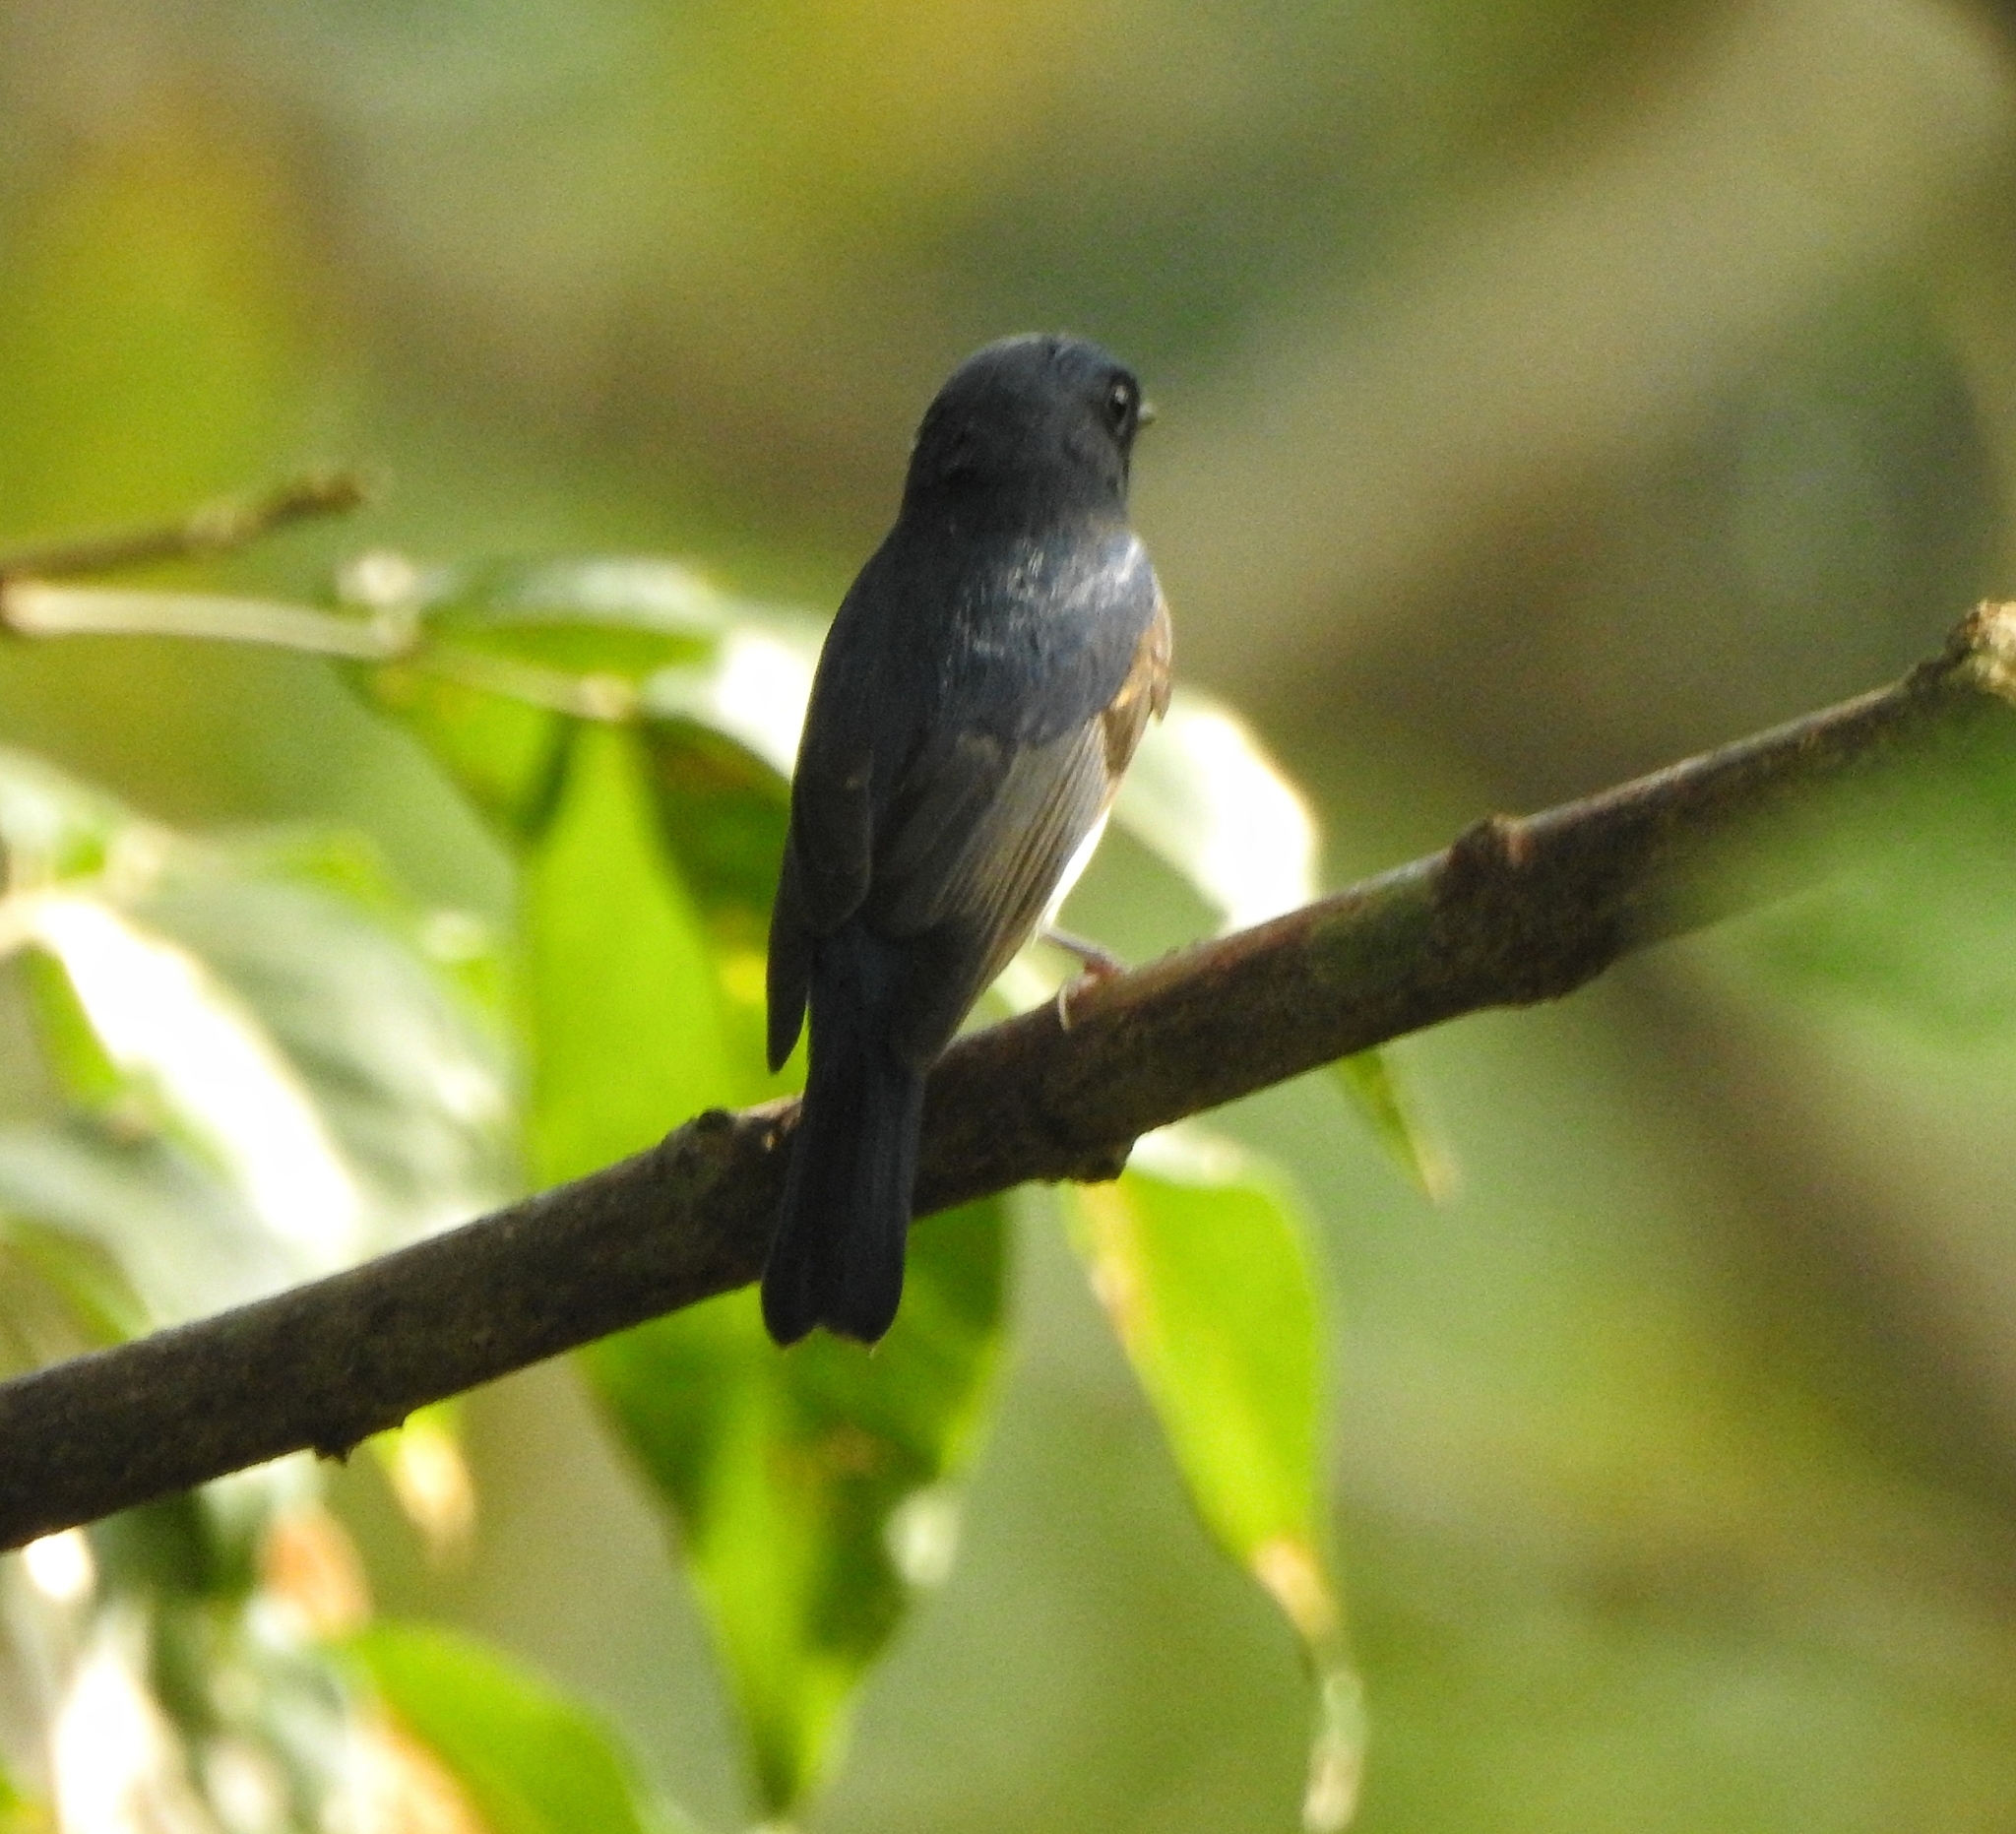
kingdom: Animalia
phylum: Chordata
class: Aves
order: Passeriformes
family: Muscicapidae
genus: Cyornis
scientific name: Cyornis rubeculoides
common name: Blue-throated blue flycatcher
